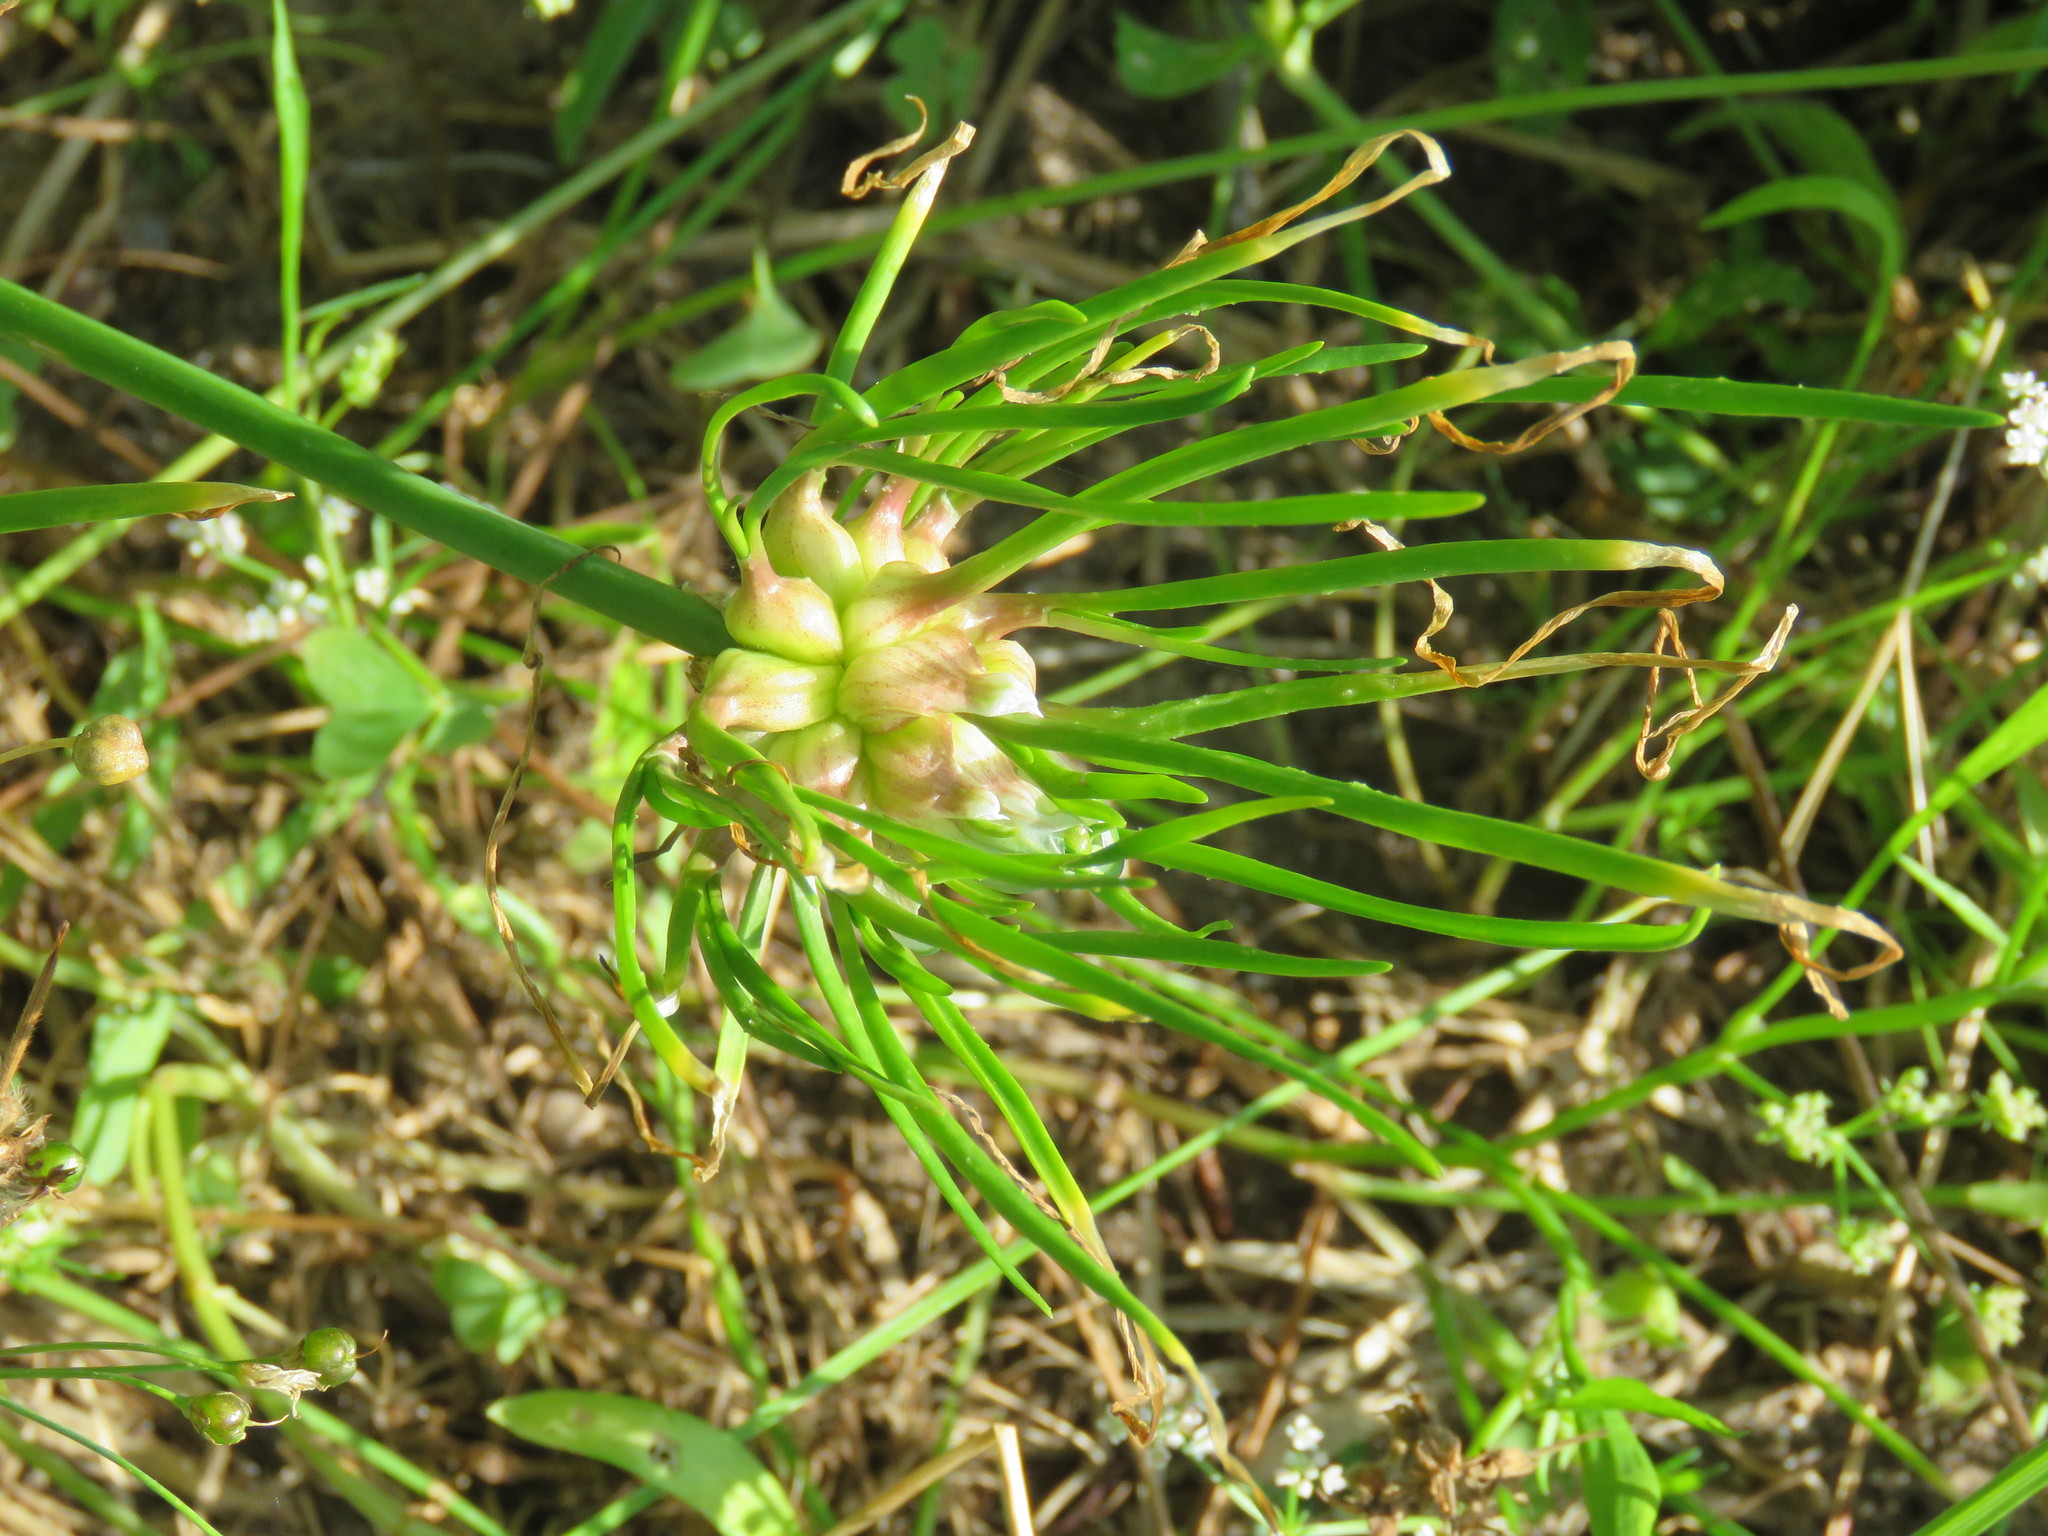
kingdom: Plantae
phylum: Tracheophyta
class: Liliopsida
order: Asparagales
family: Amaryllidaceae
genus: Allium
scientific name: Allium canadense
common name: Meadow garlic
